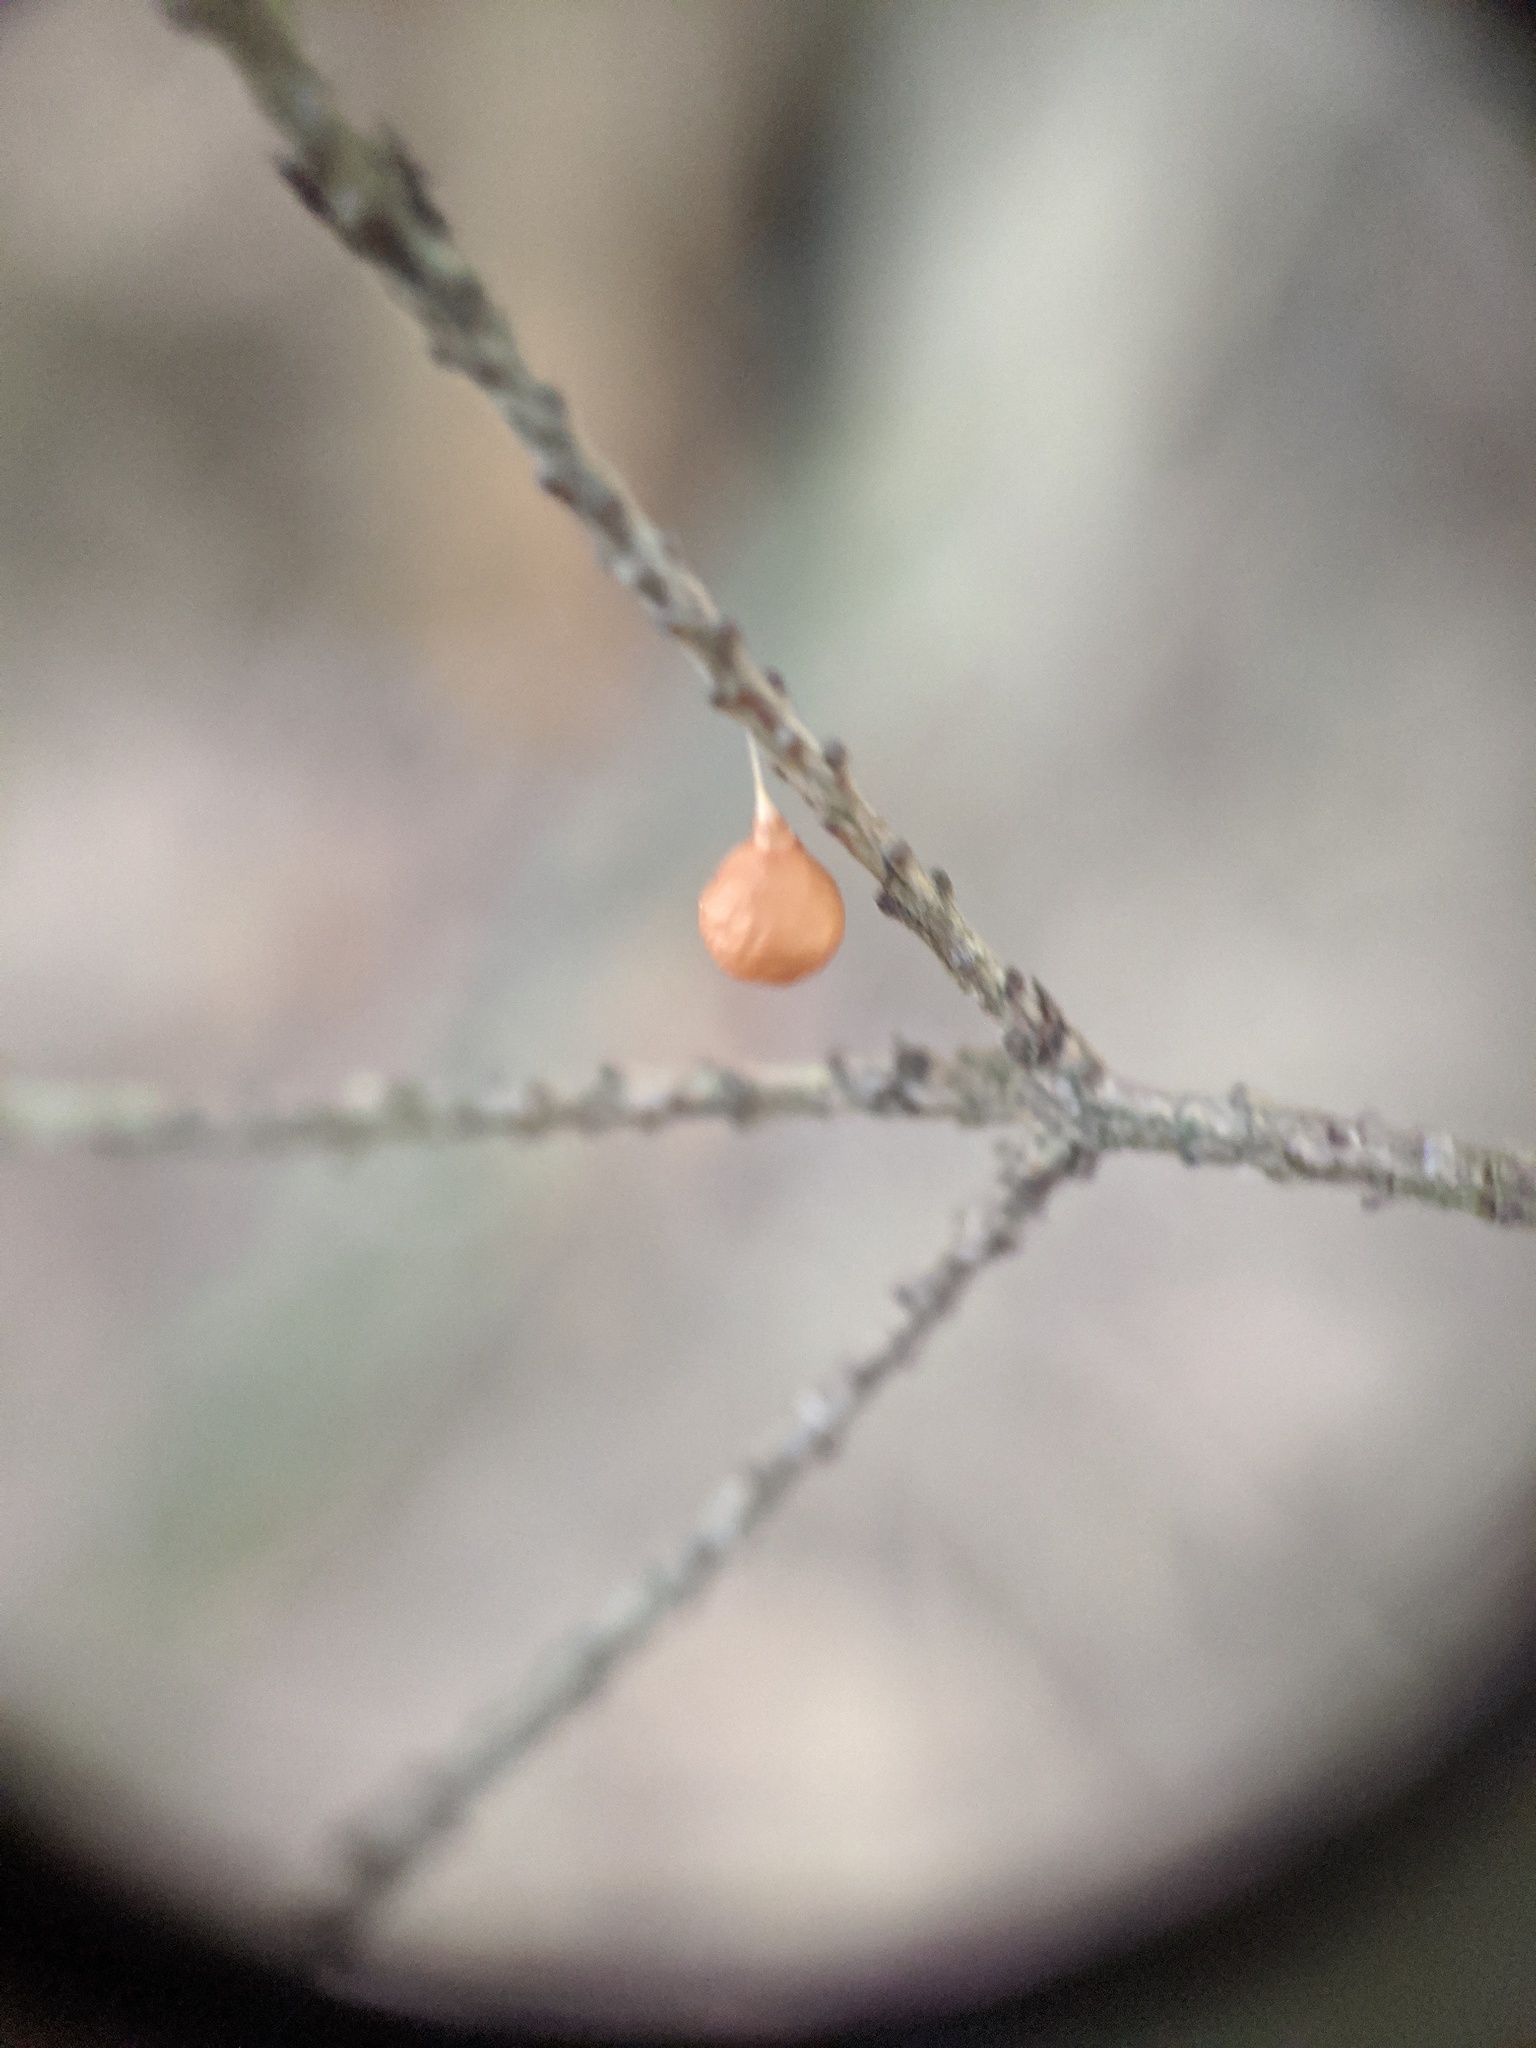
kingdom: Animalia
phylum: Arthropoda
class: Arachnida
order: Araneae
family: Theridiosomatidae
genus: Theridiosoma
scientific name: Theridiosoma gemmosum
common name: Ray spider
